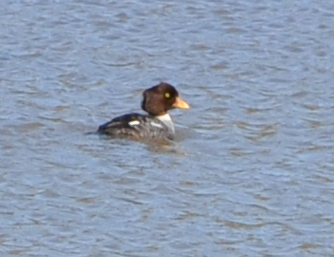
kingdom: Animalia
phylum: Chordata
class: Aves
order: Anseriformes
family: Anatidae
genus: Bucephala
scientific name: Bucephala islandica
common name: Barrow's goldeneye
